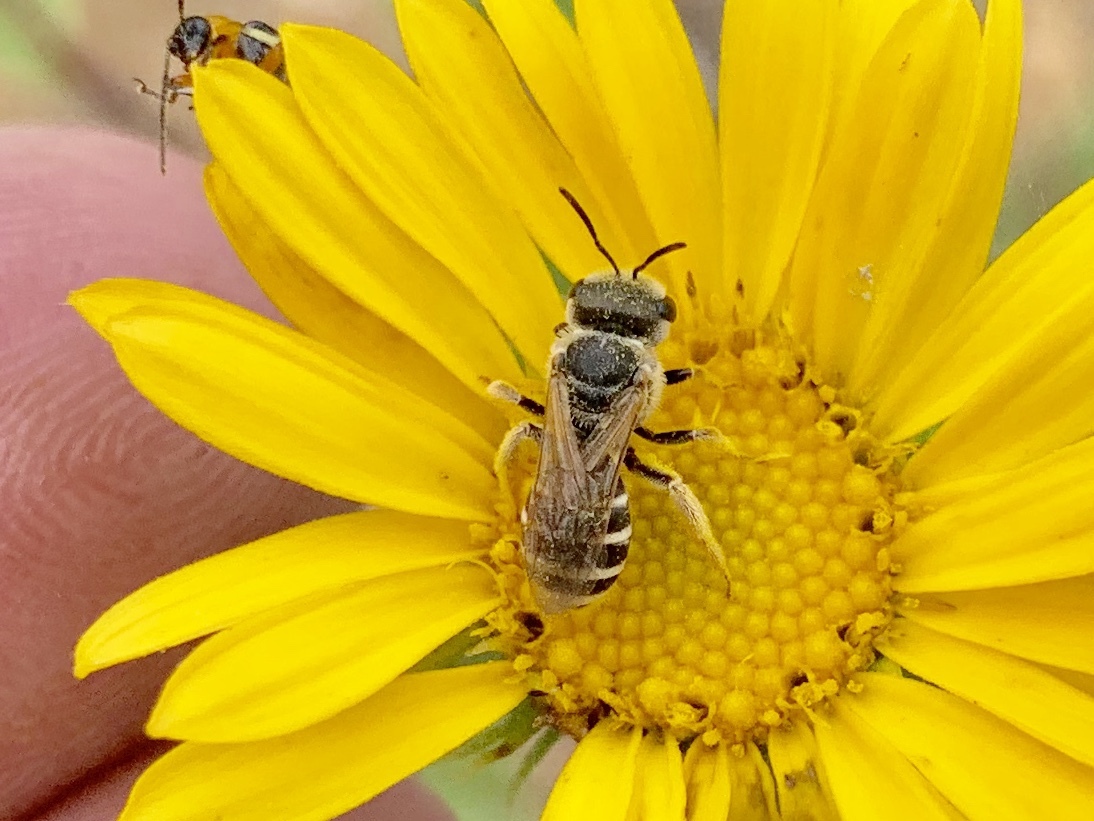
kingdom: Animalia
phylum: Arthropoda
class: Insecta
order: Hymenoptera
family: Halictidae
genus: Halictus
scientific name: Halictus ligatus
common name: Ligated furrow bee
